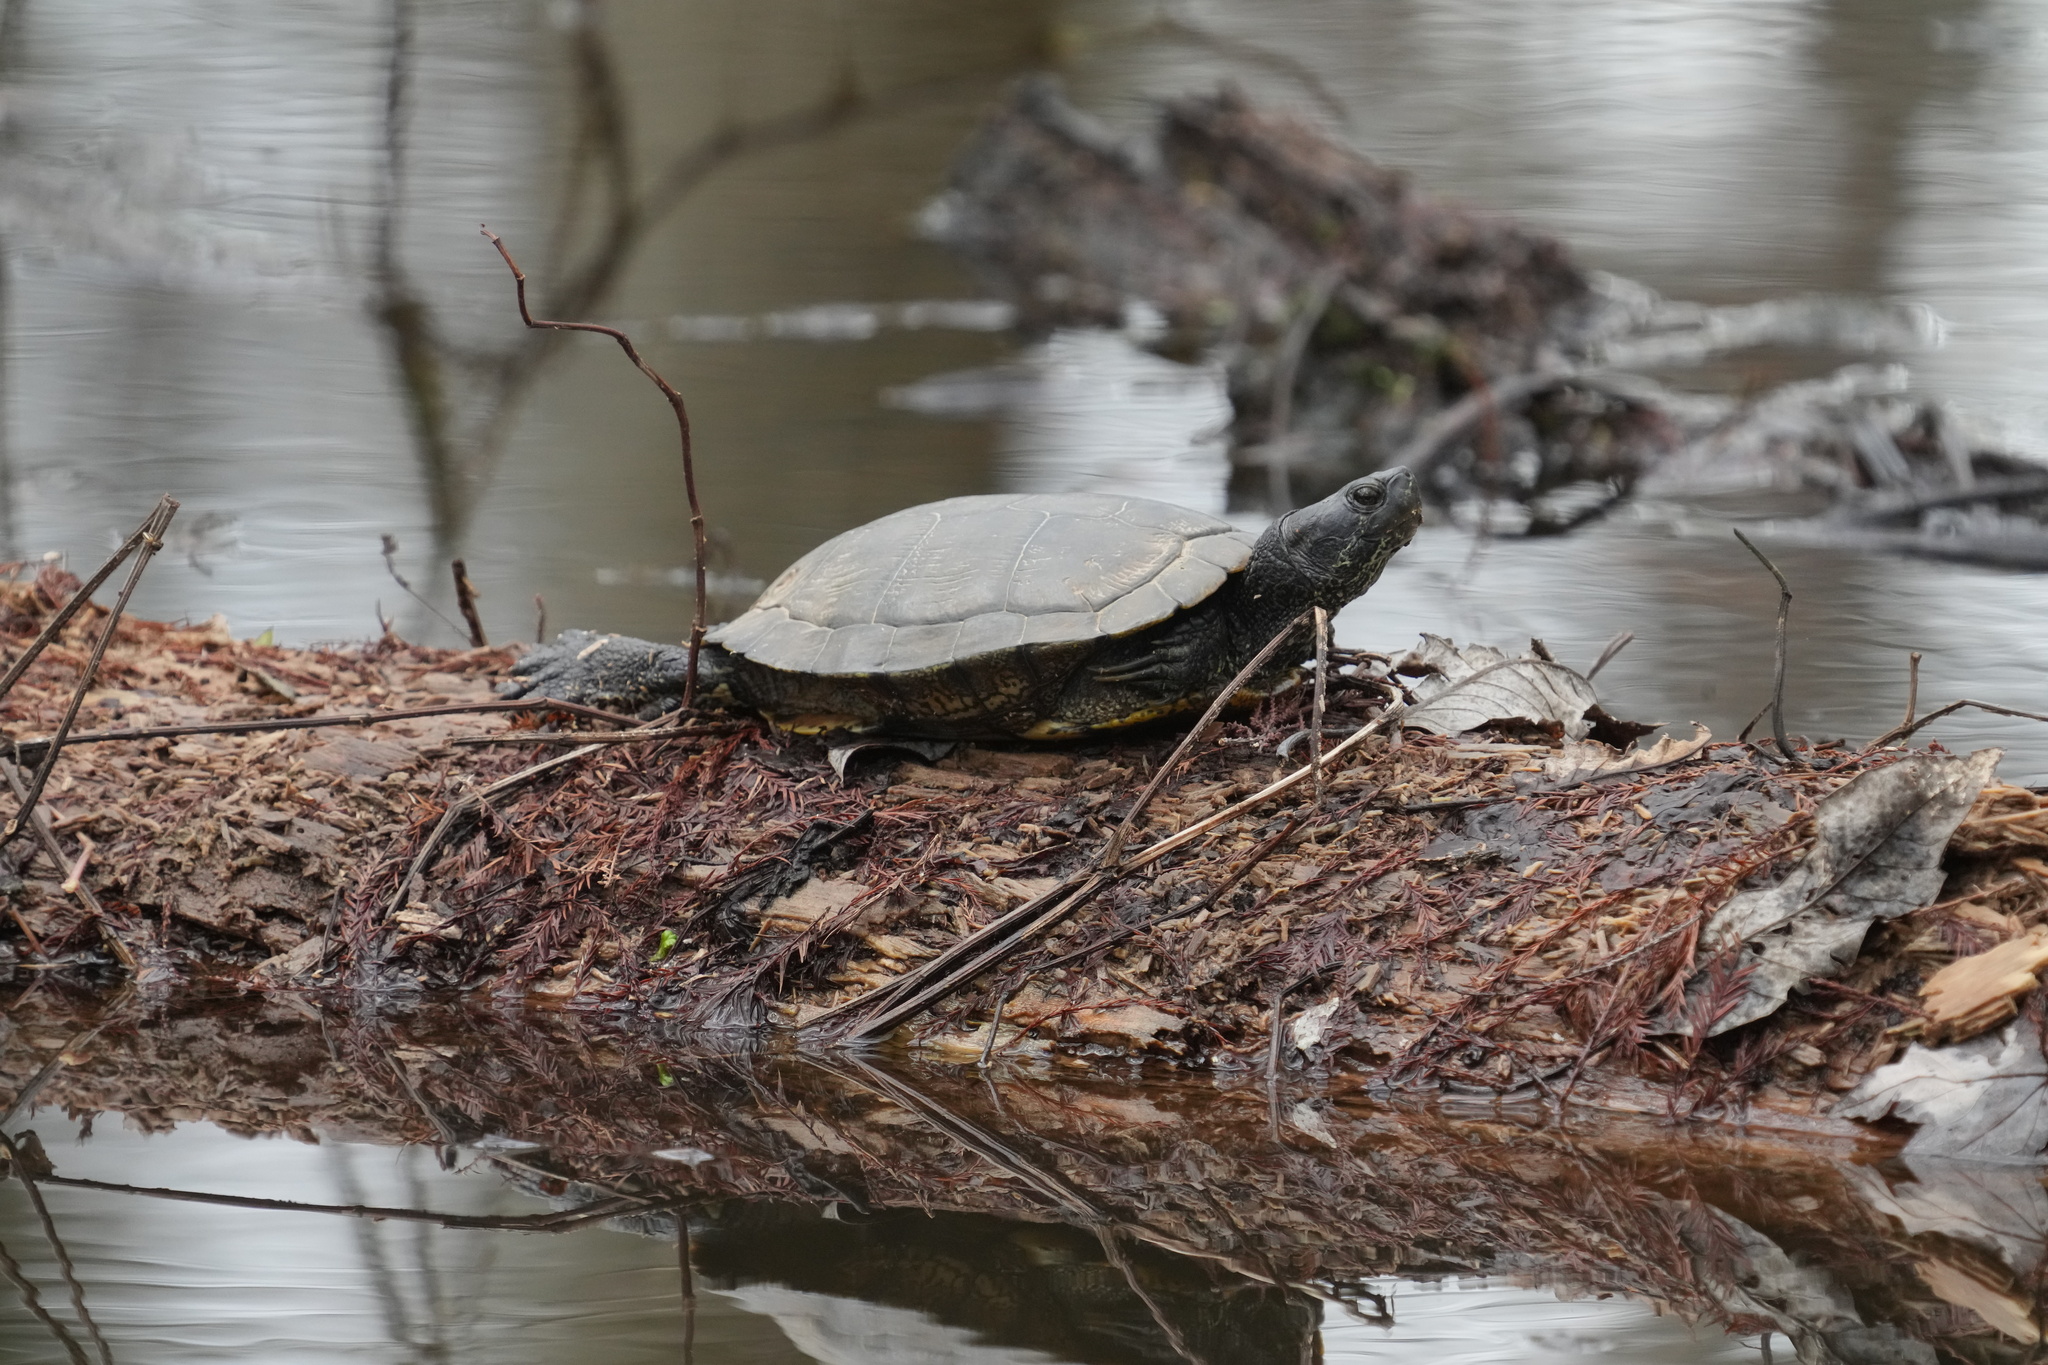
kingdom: Animalia
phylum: Chordata
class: Testudines
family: Emydidae
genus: Trachemys
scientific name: Trachemys scripta
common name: Slider
